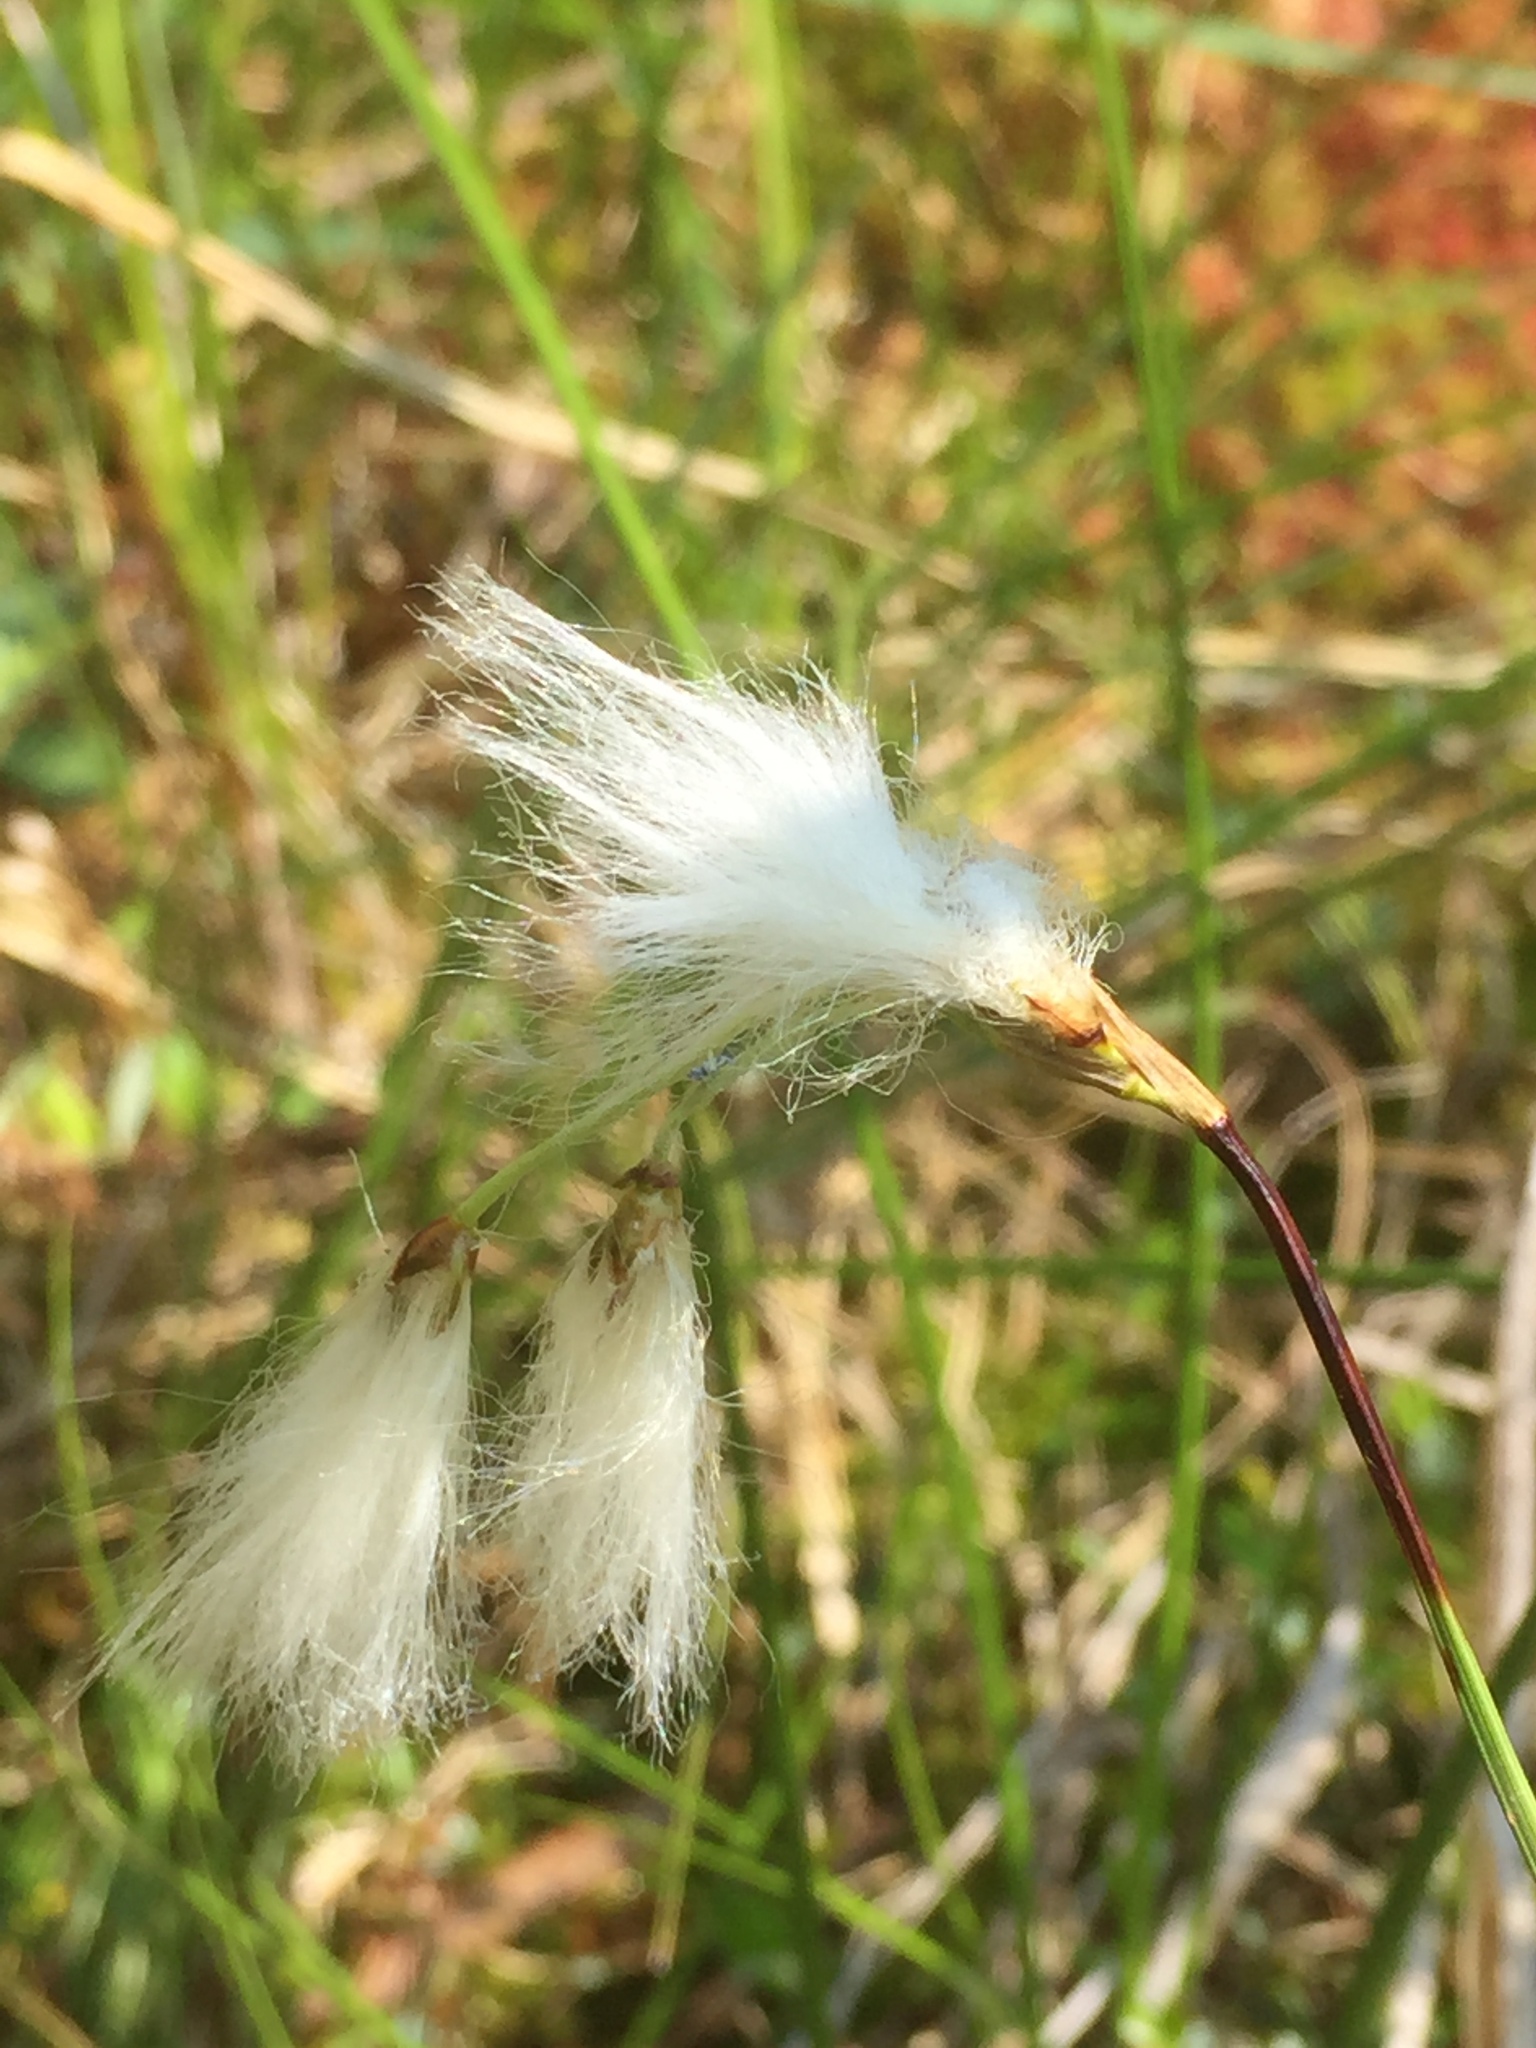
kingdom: Plantae
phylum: Tracheophyta
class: Liliopsida
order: Poales
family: Cyperaceae
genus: Eriophorum
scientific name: Eriophorum gracile
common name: Slender cottongrass
